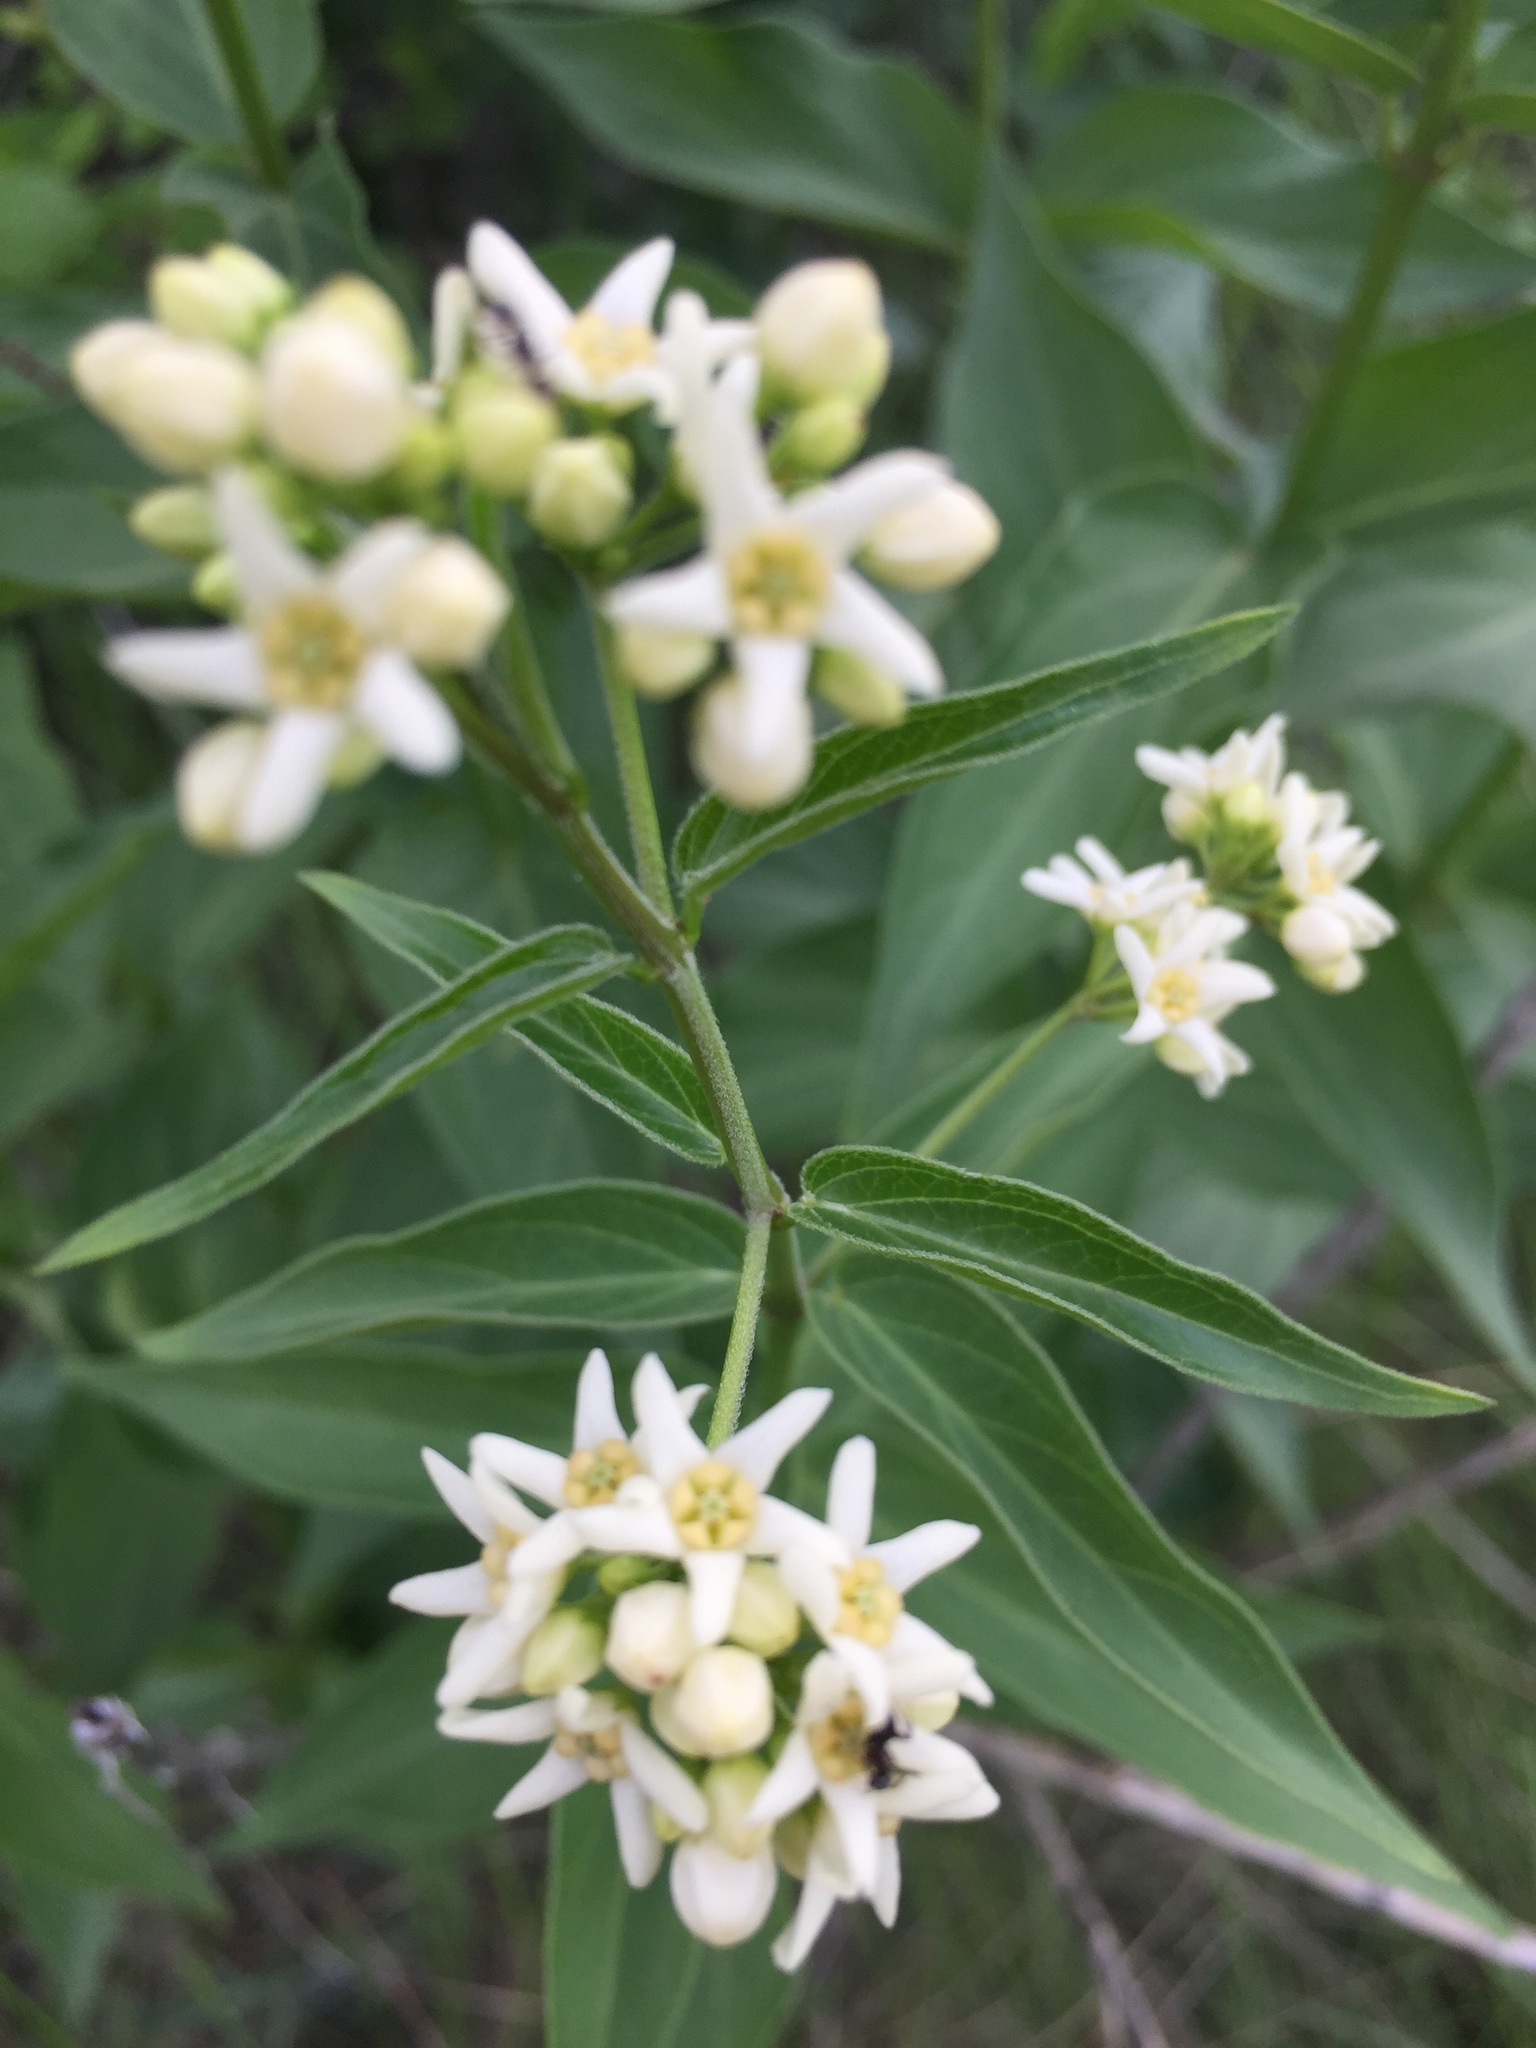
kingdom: Plantae
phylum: Tracheophyta
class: Magnoliopsida
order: Gentianales
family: Apocynaceae
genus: Vincetoxicum
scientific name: Vincetoxicum hirundinaria
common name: White swallowwort
